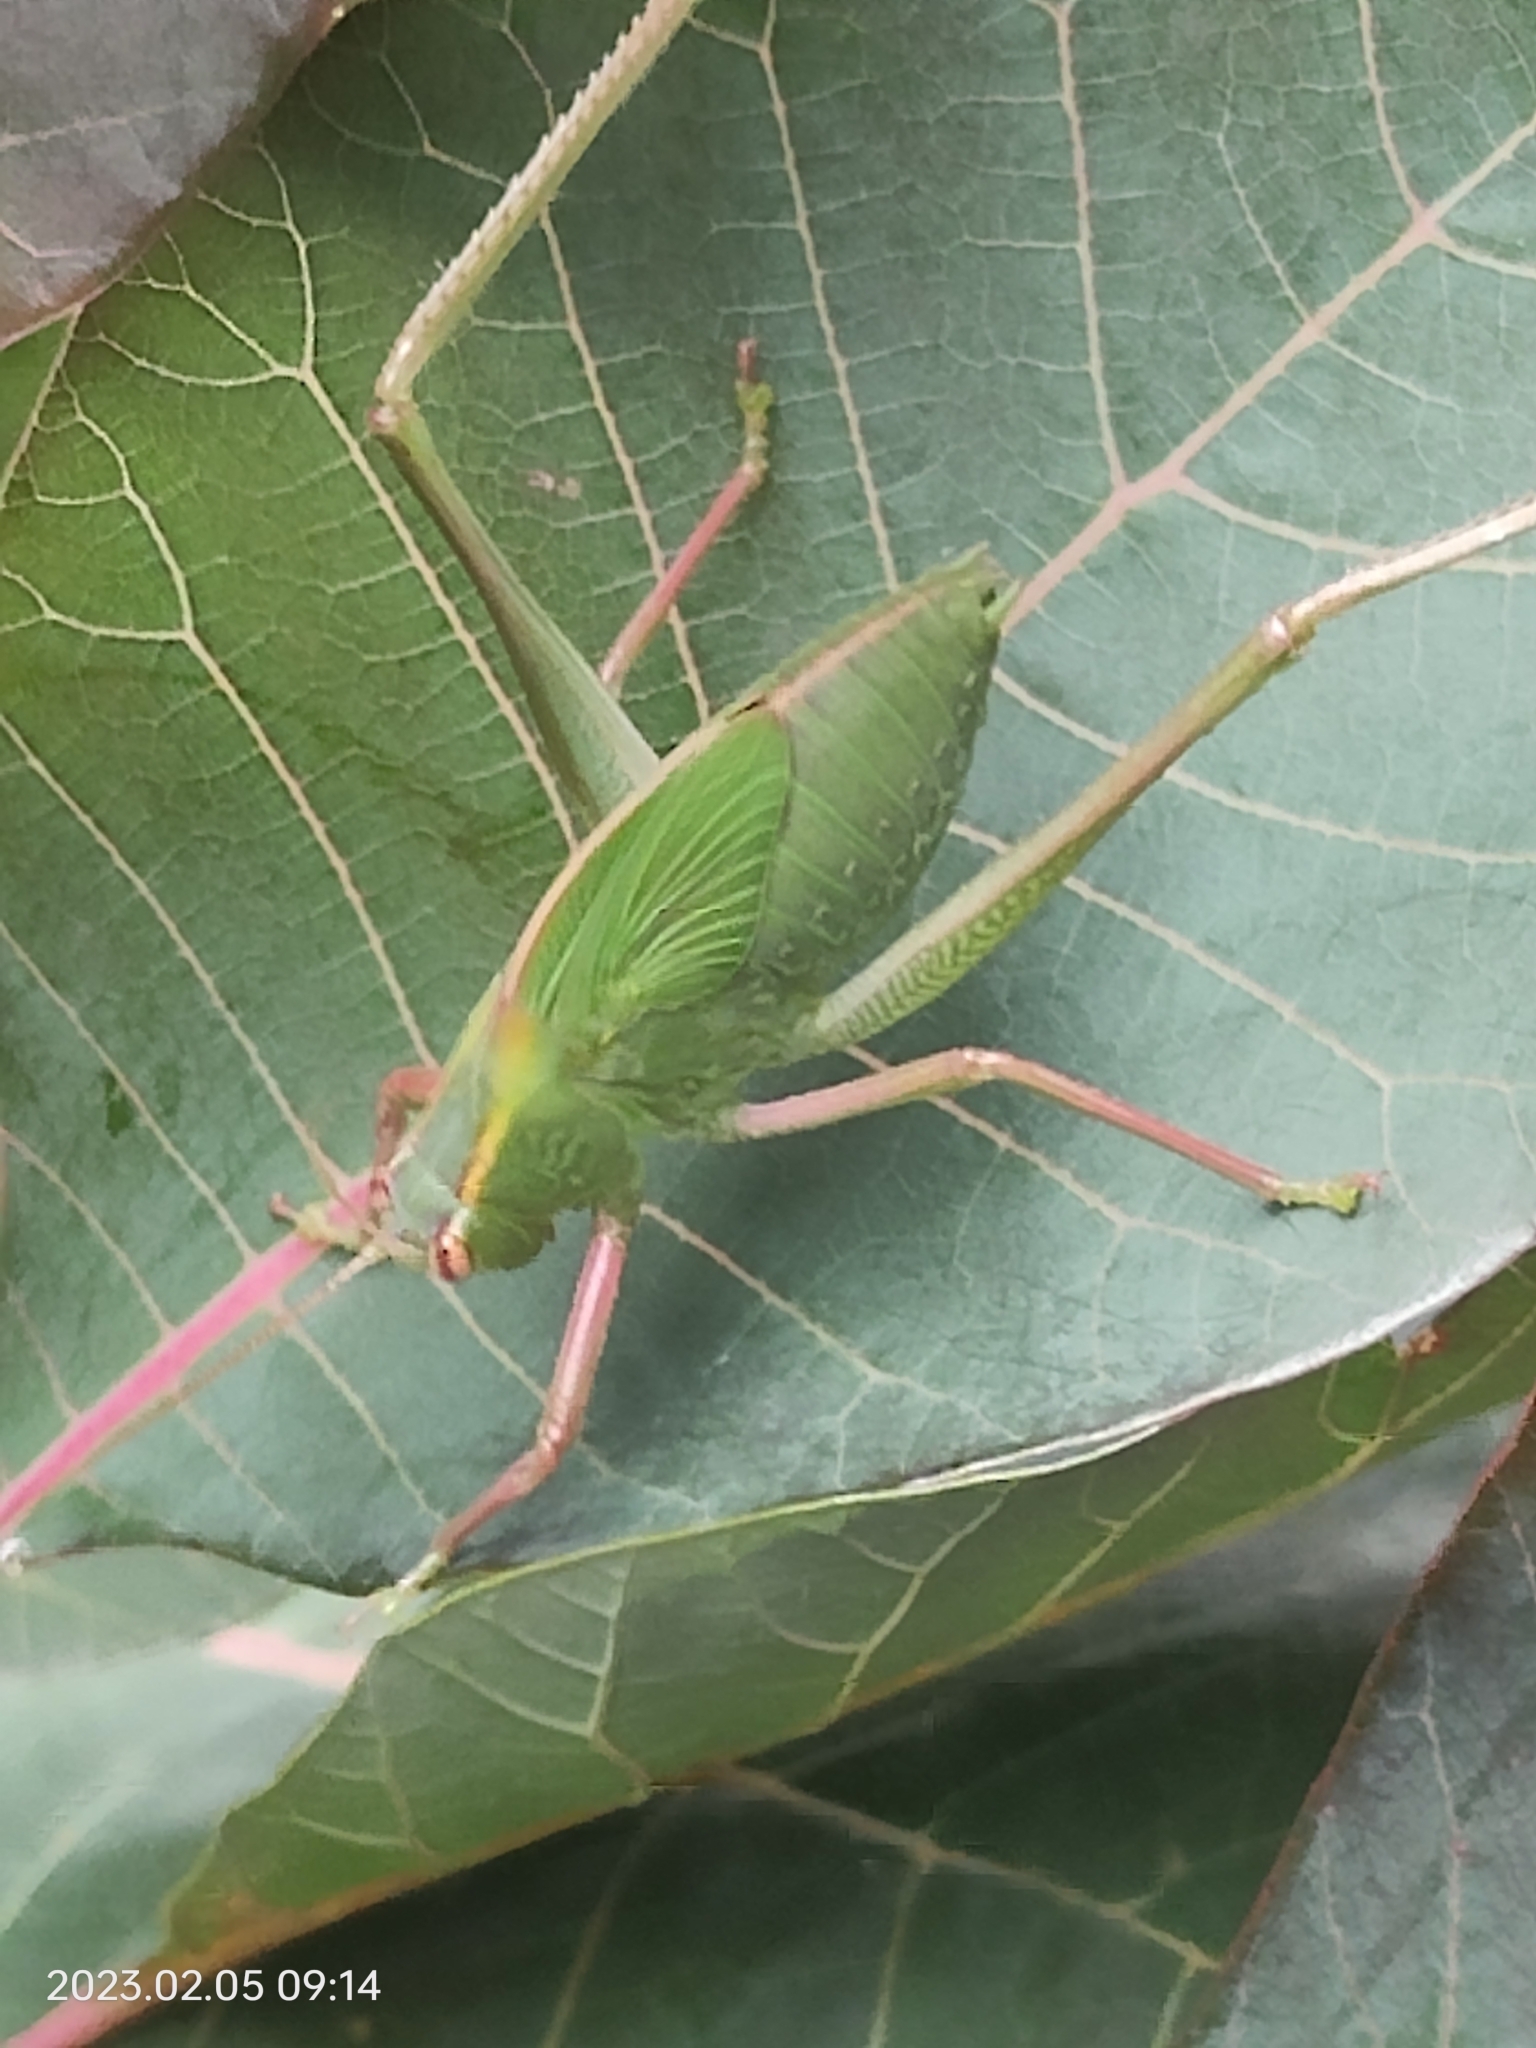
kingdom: Animalia
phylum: Arthropoda
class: Insecta
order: Orthoptera
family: Tettigoniidae
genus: Caedicia
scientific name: Caedicia simplex
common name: Common garden katydid
